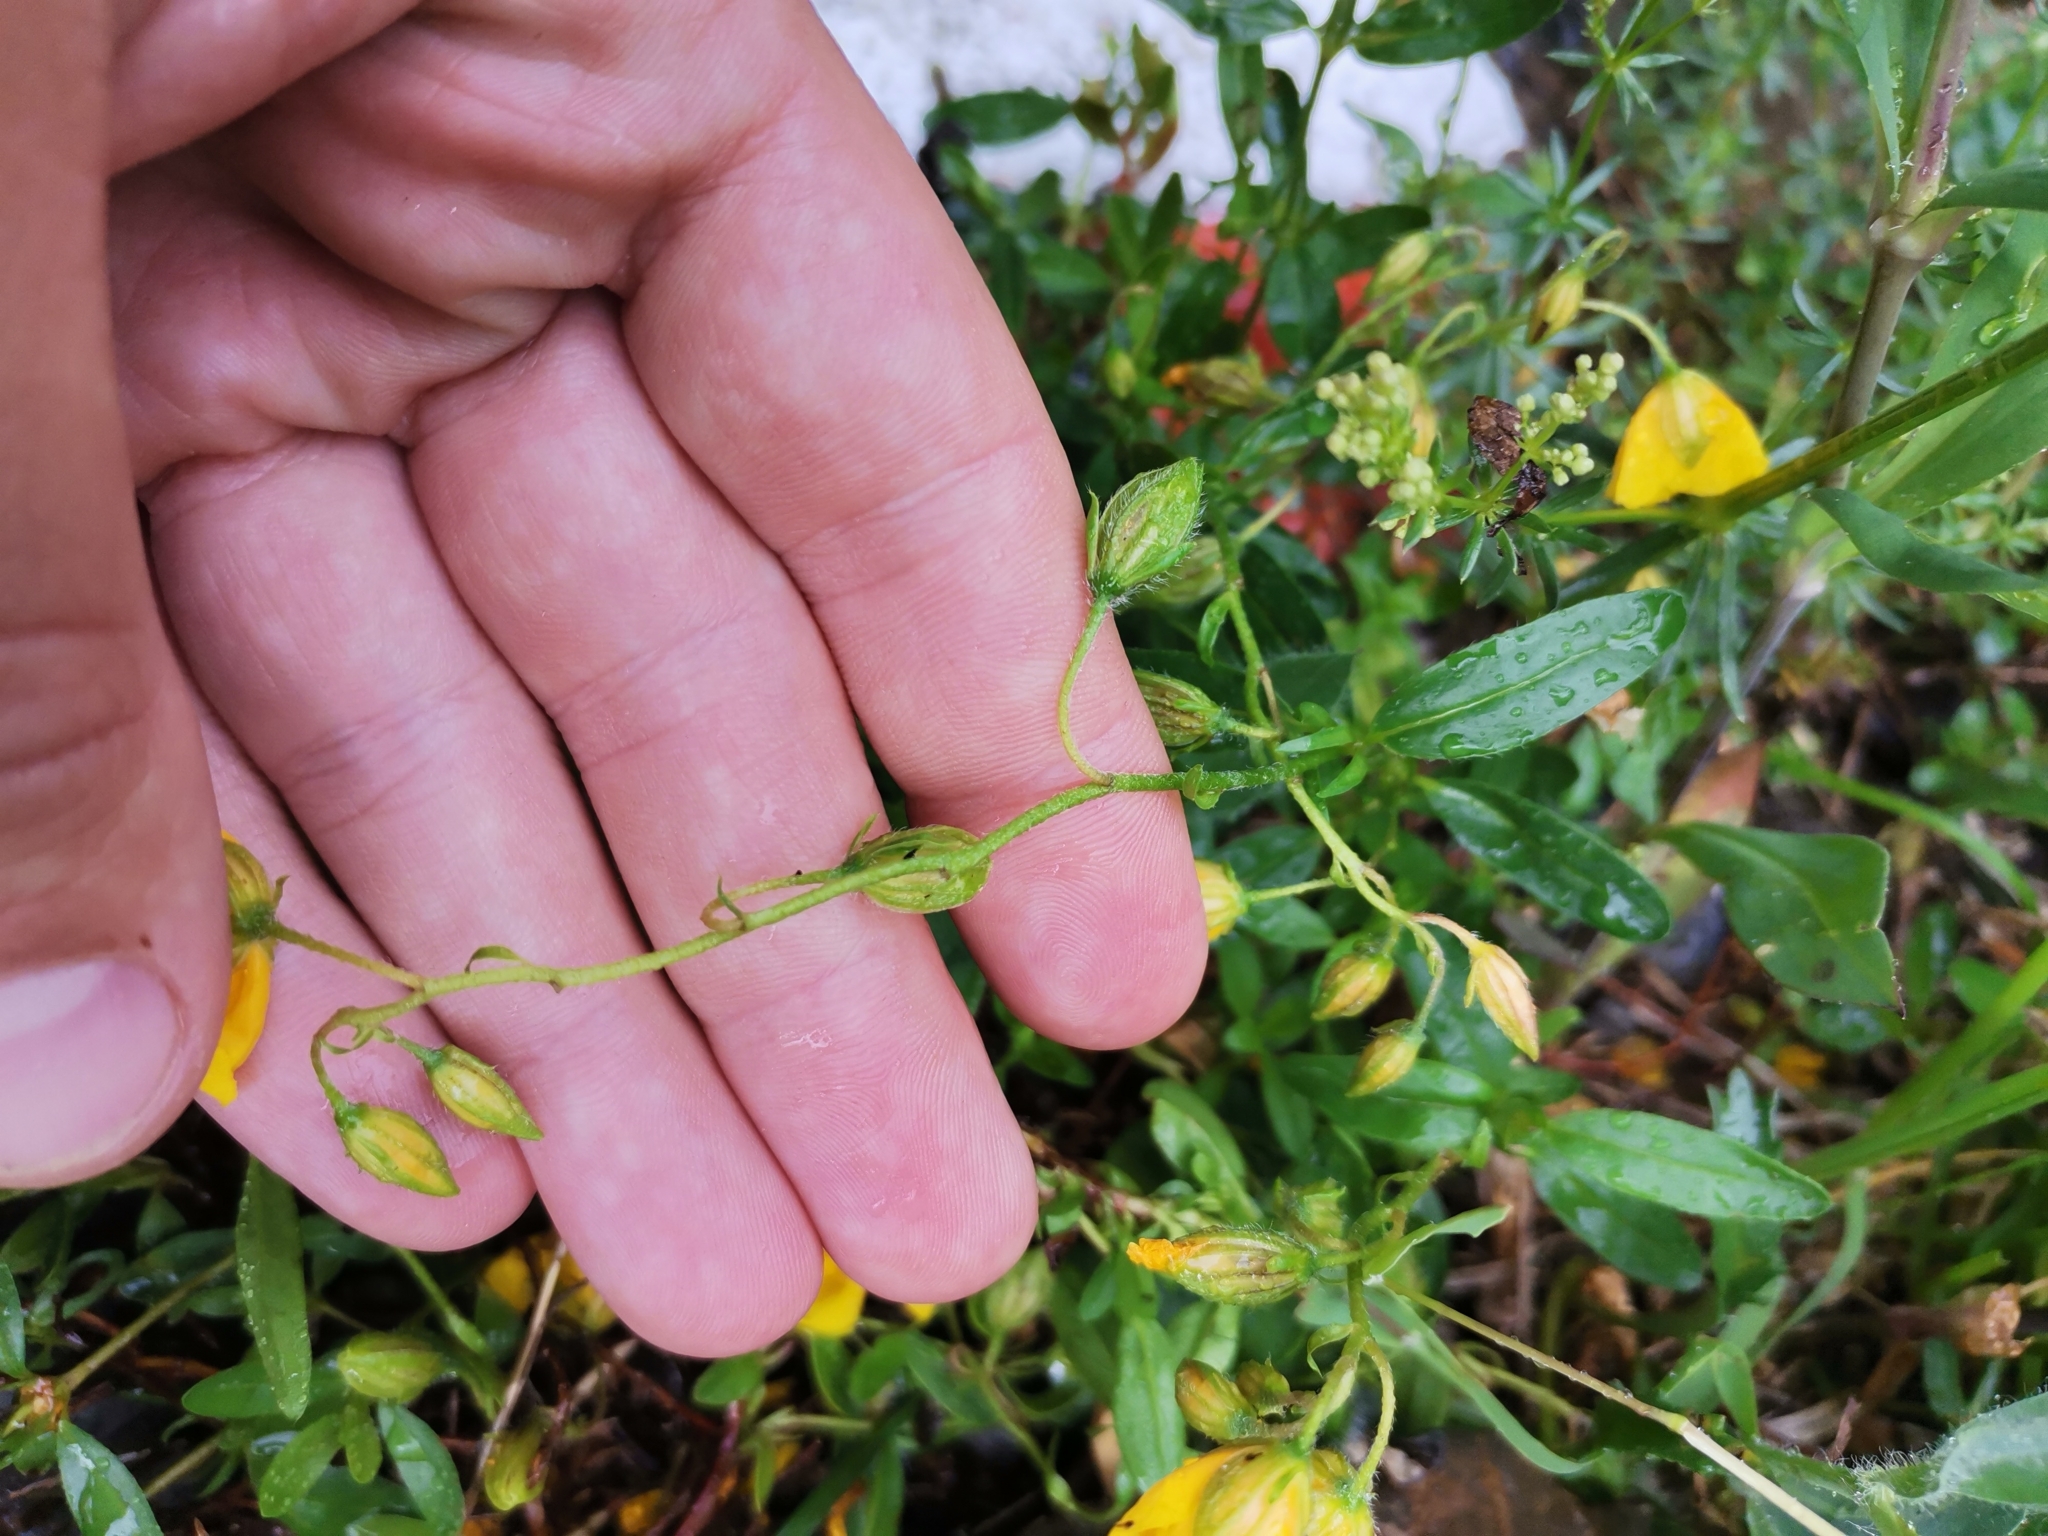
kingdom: Plantae
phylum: Tracheophyta
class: Magnoliopsida
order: Malvales
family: Cistaceae
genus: Helianthemum
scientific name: Helianthemum nummularium
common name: Common rock-rose
